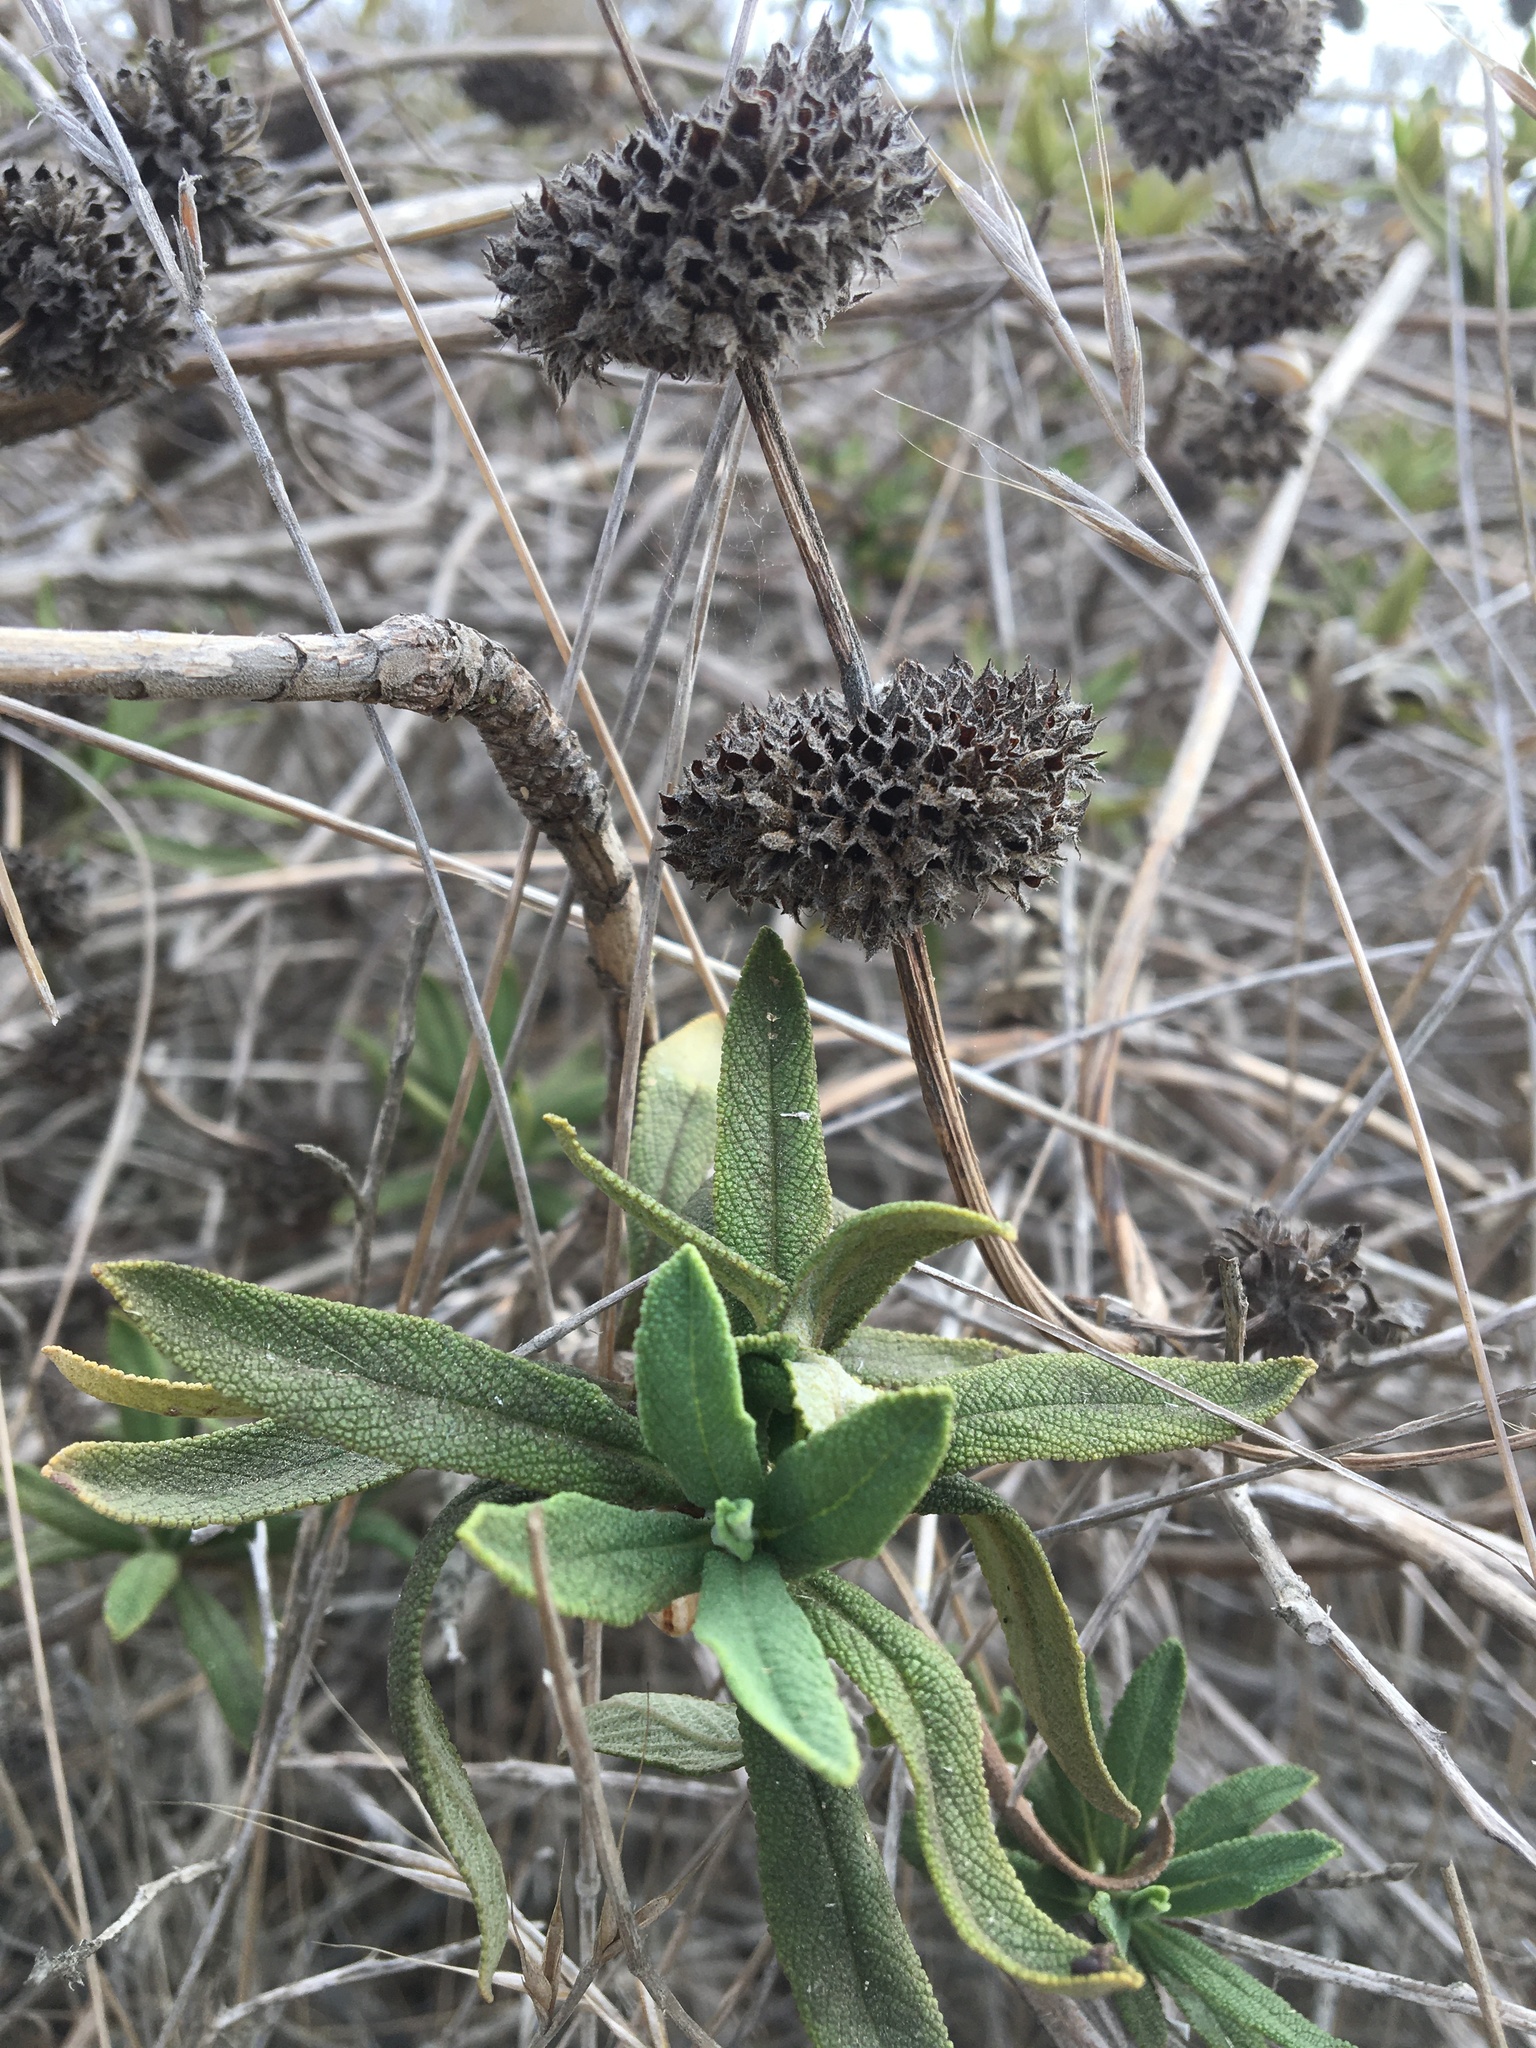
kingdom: Plantae
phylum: Tracheophyta
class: Magnoliopsida
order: Lamiales
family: Lamiaceae
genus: Salvia
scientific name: Salvia mellifera
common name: Black sage
